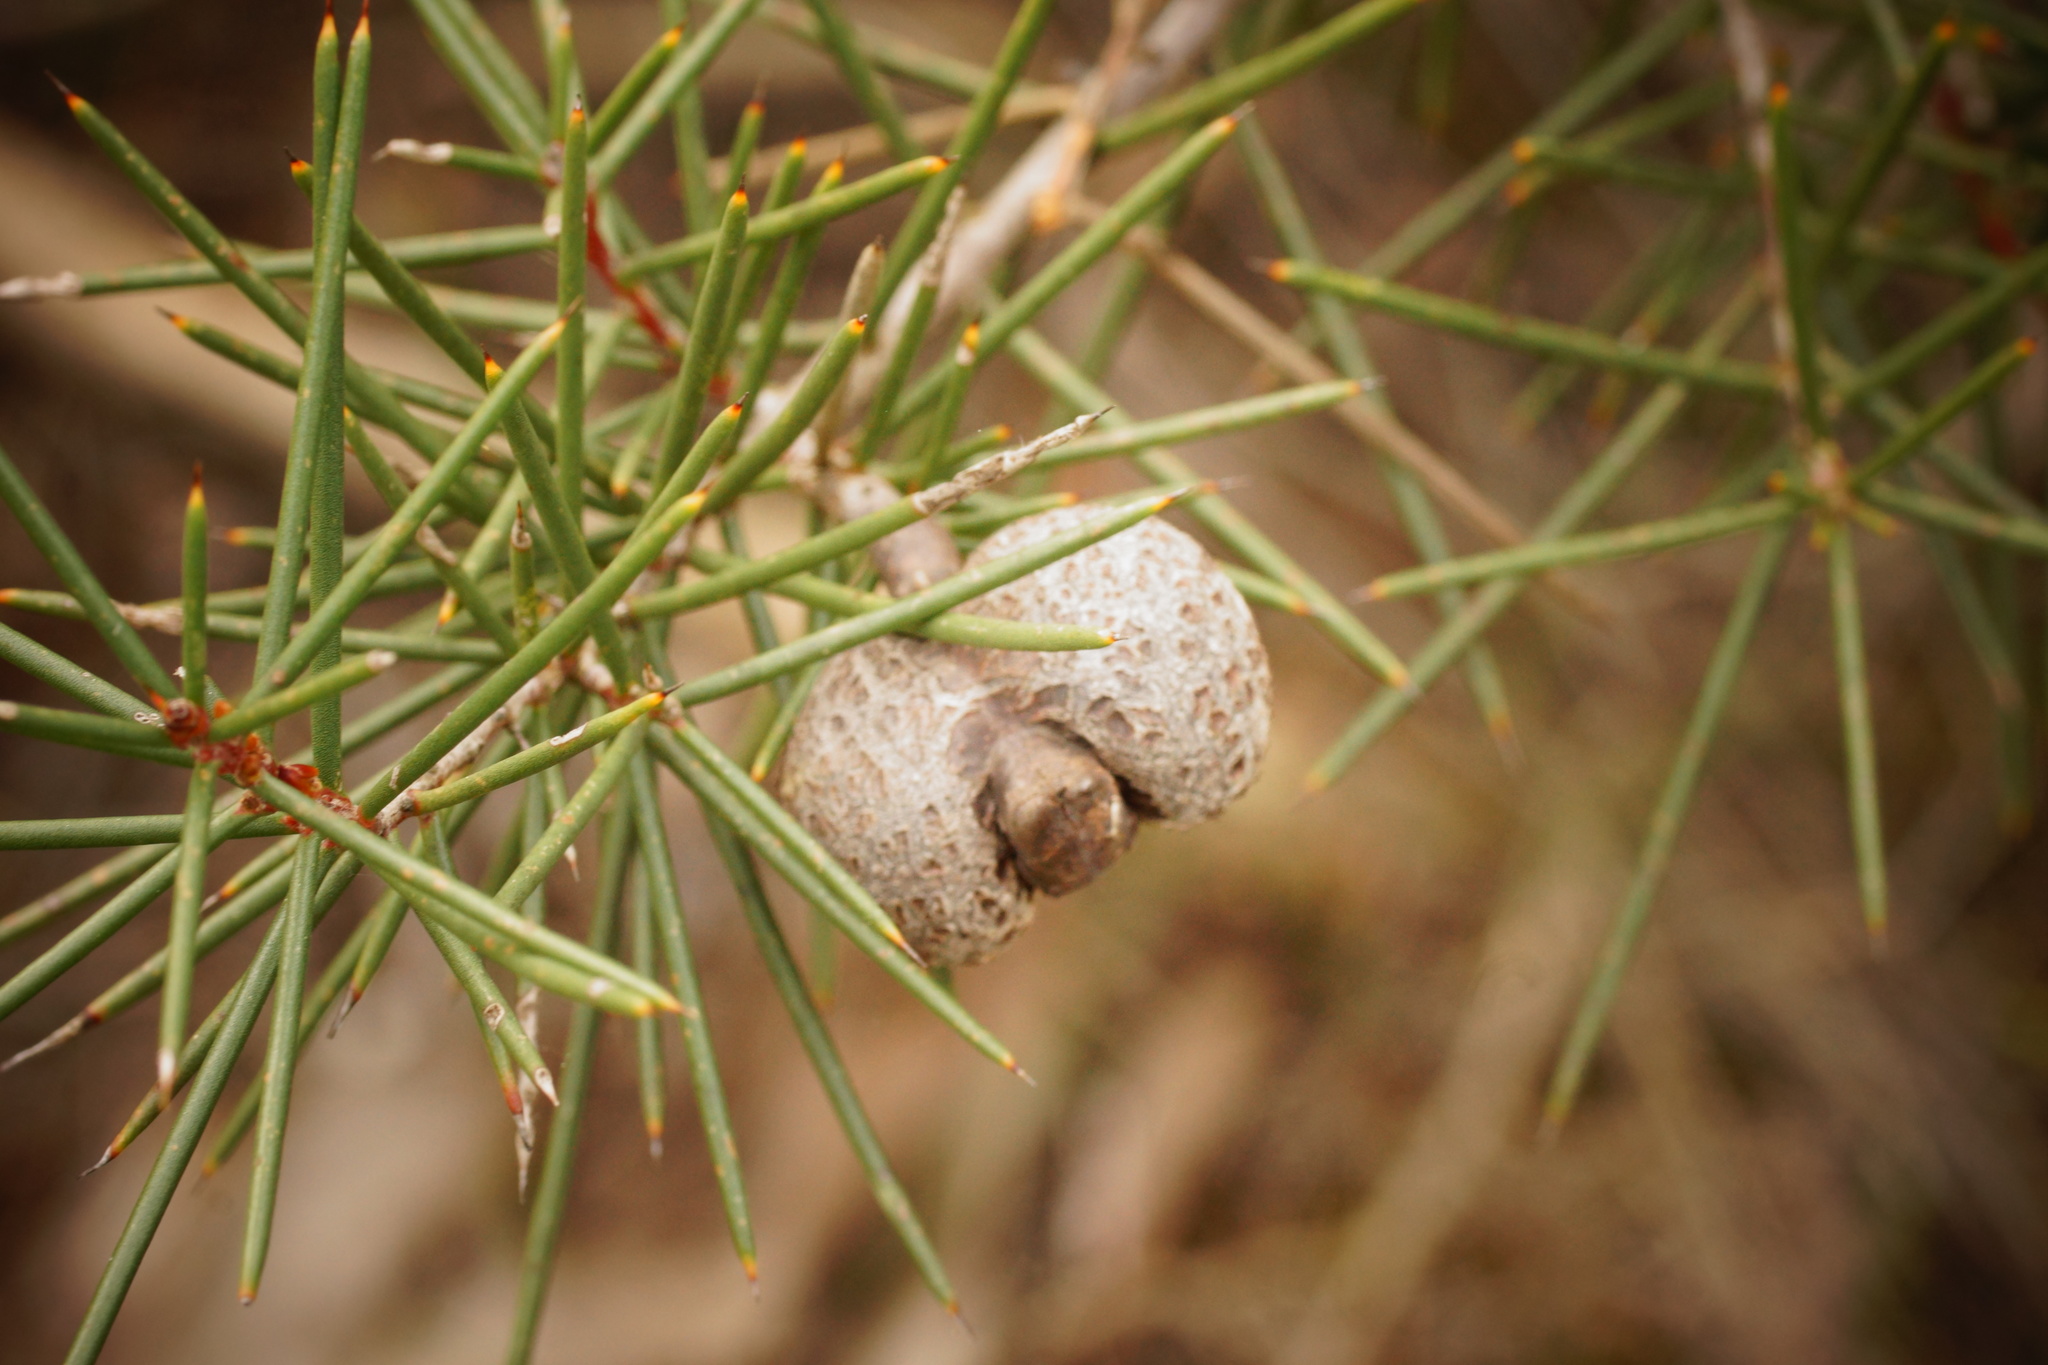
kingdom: Plantae
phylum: Tracheophyta
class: Magnoliopsida
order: Proteales
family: Proteaceae
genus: Hakea
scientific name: Hakea decurrens
